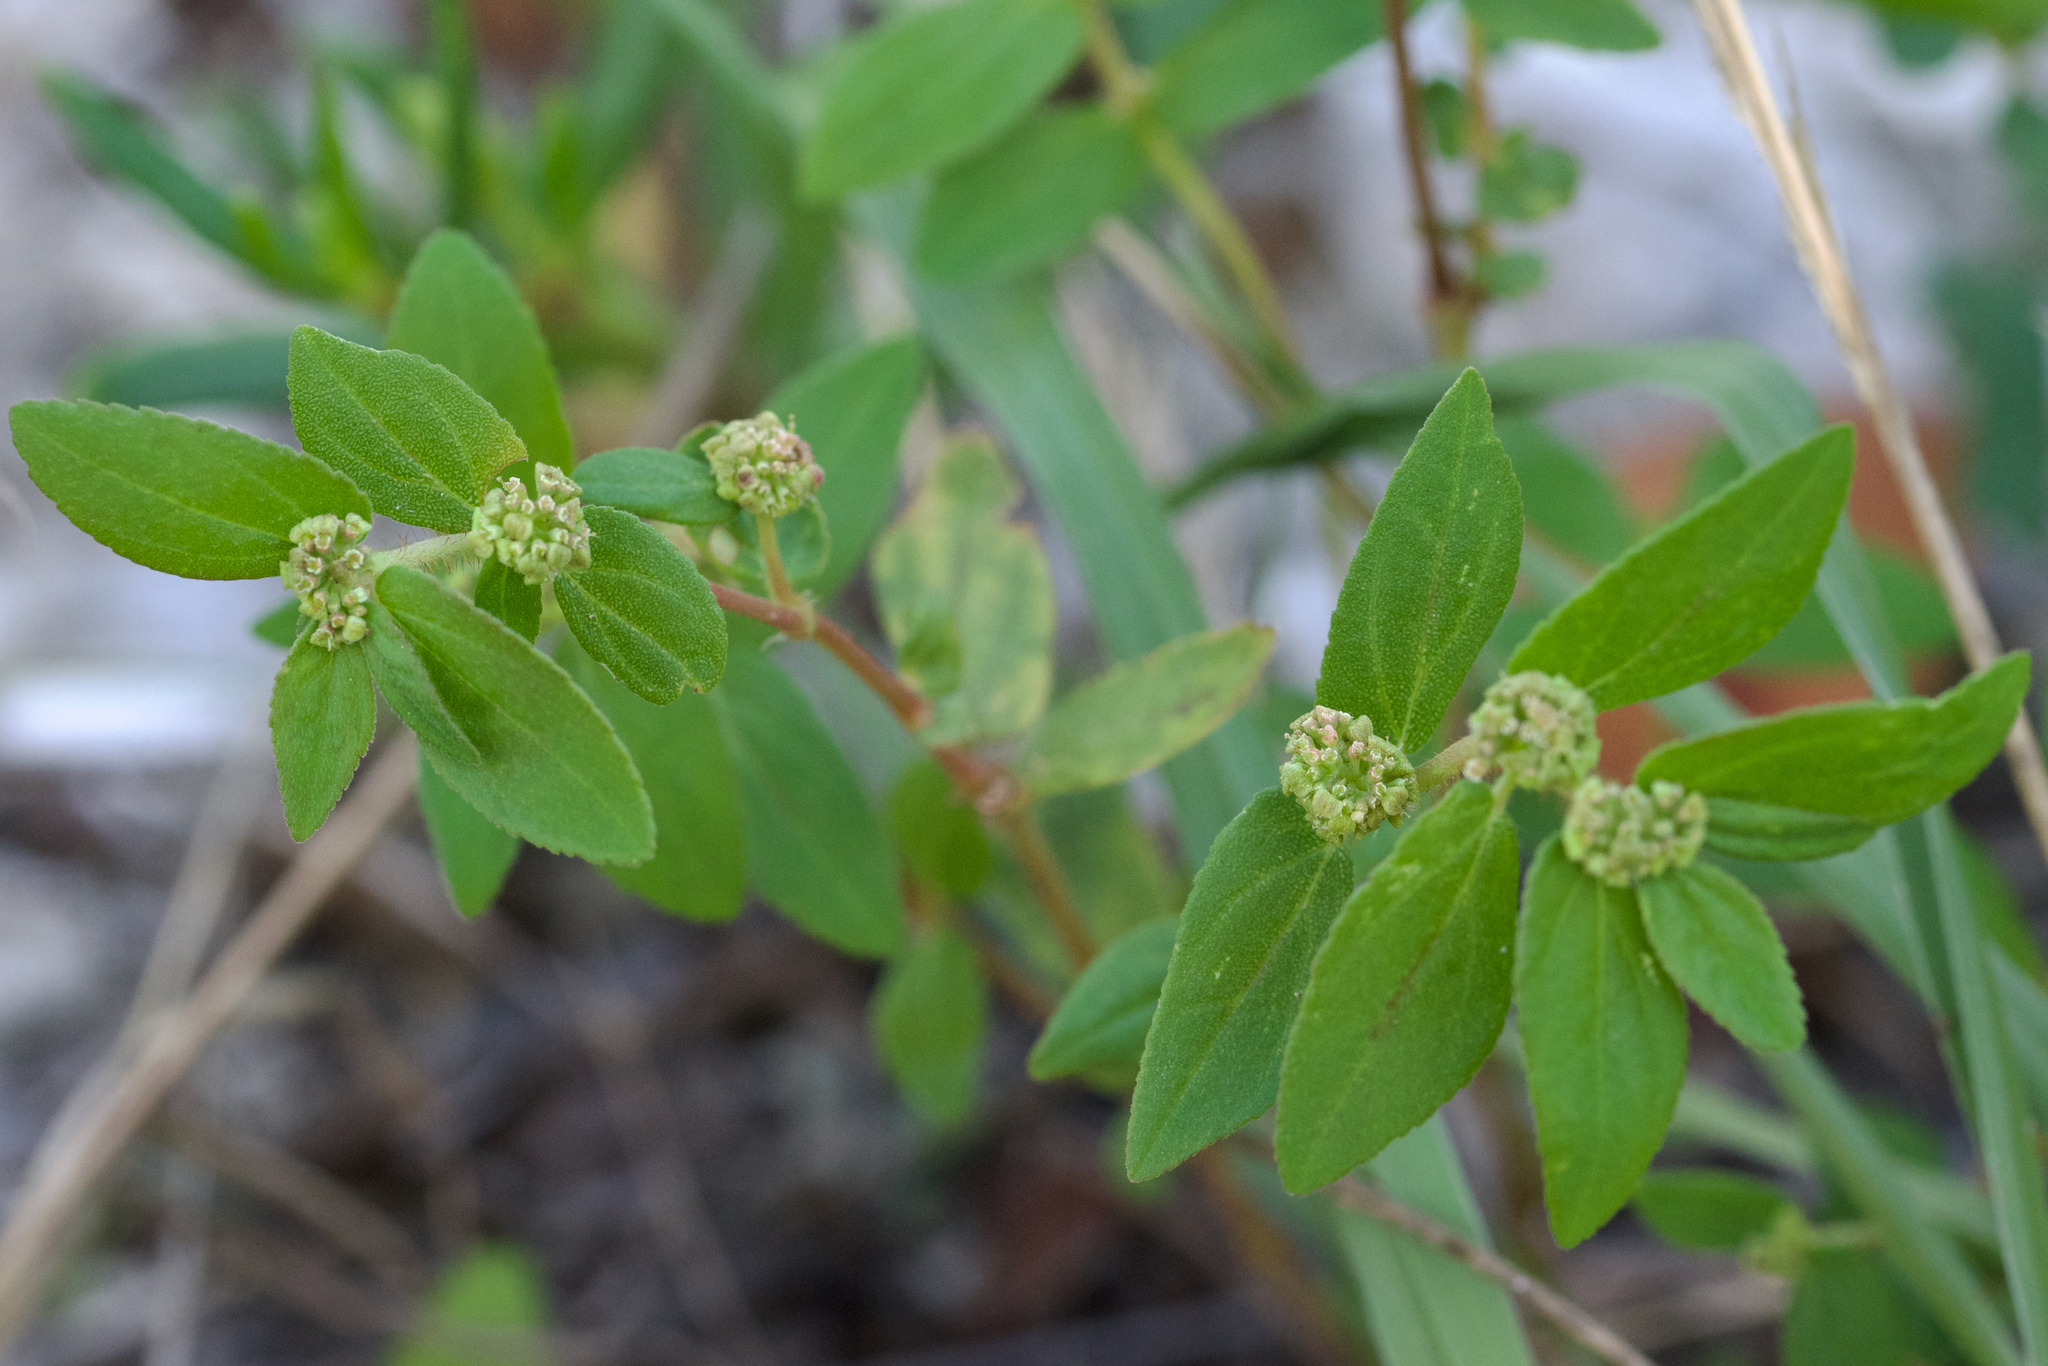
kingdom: Plantae
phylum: Tracheophyta
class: Magnoliopsida
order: Malpighiales
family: Euphorbiaceae
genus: Euphorbia
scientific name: Euphorbia hirta
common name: Pillpod sandmat
